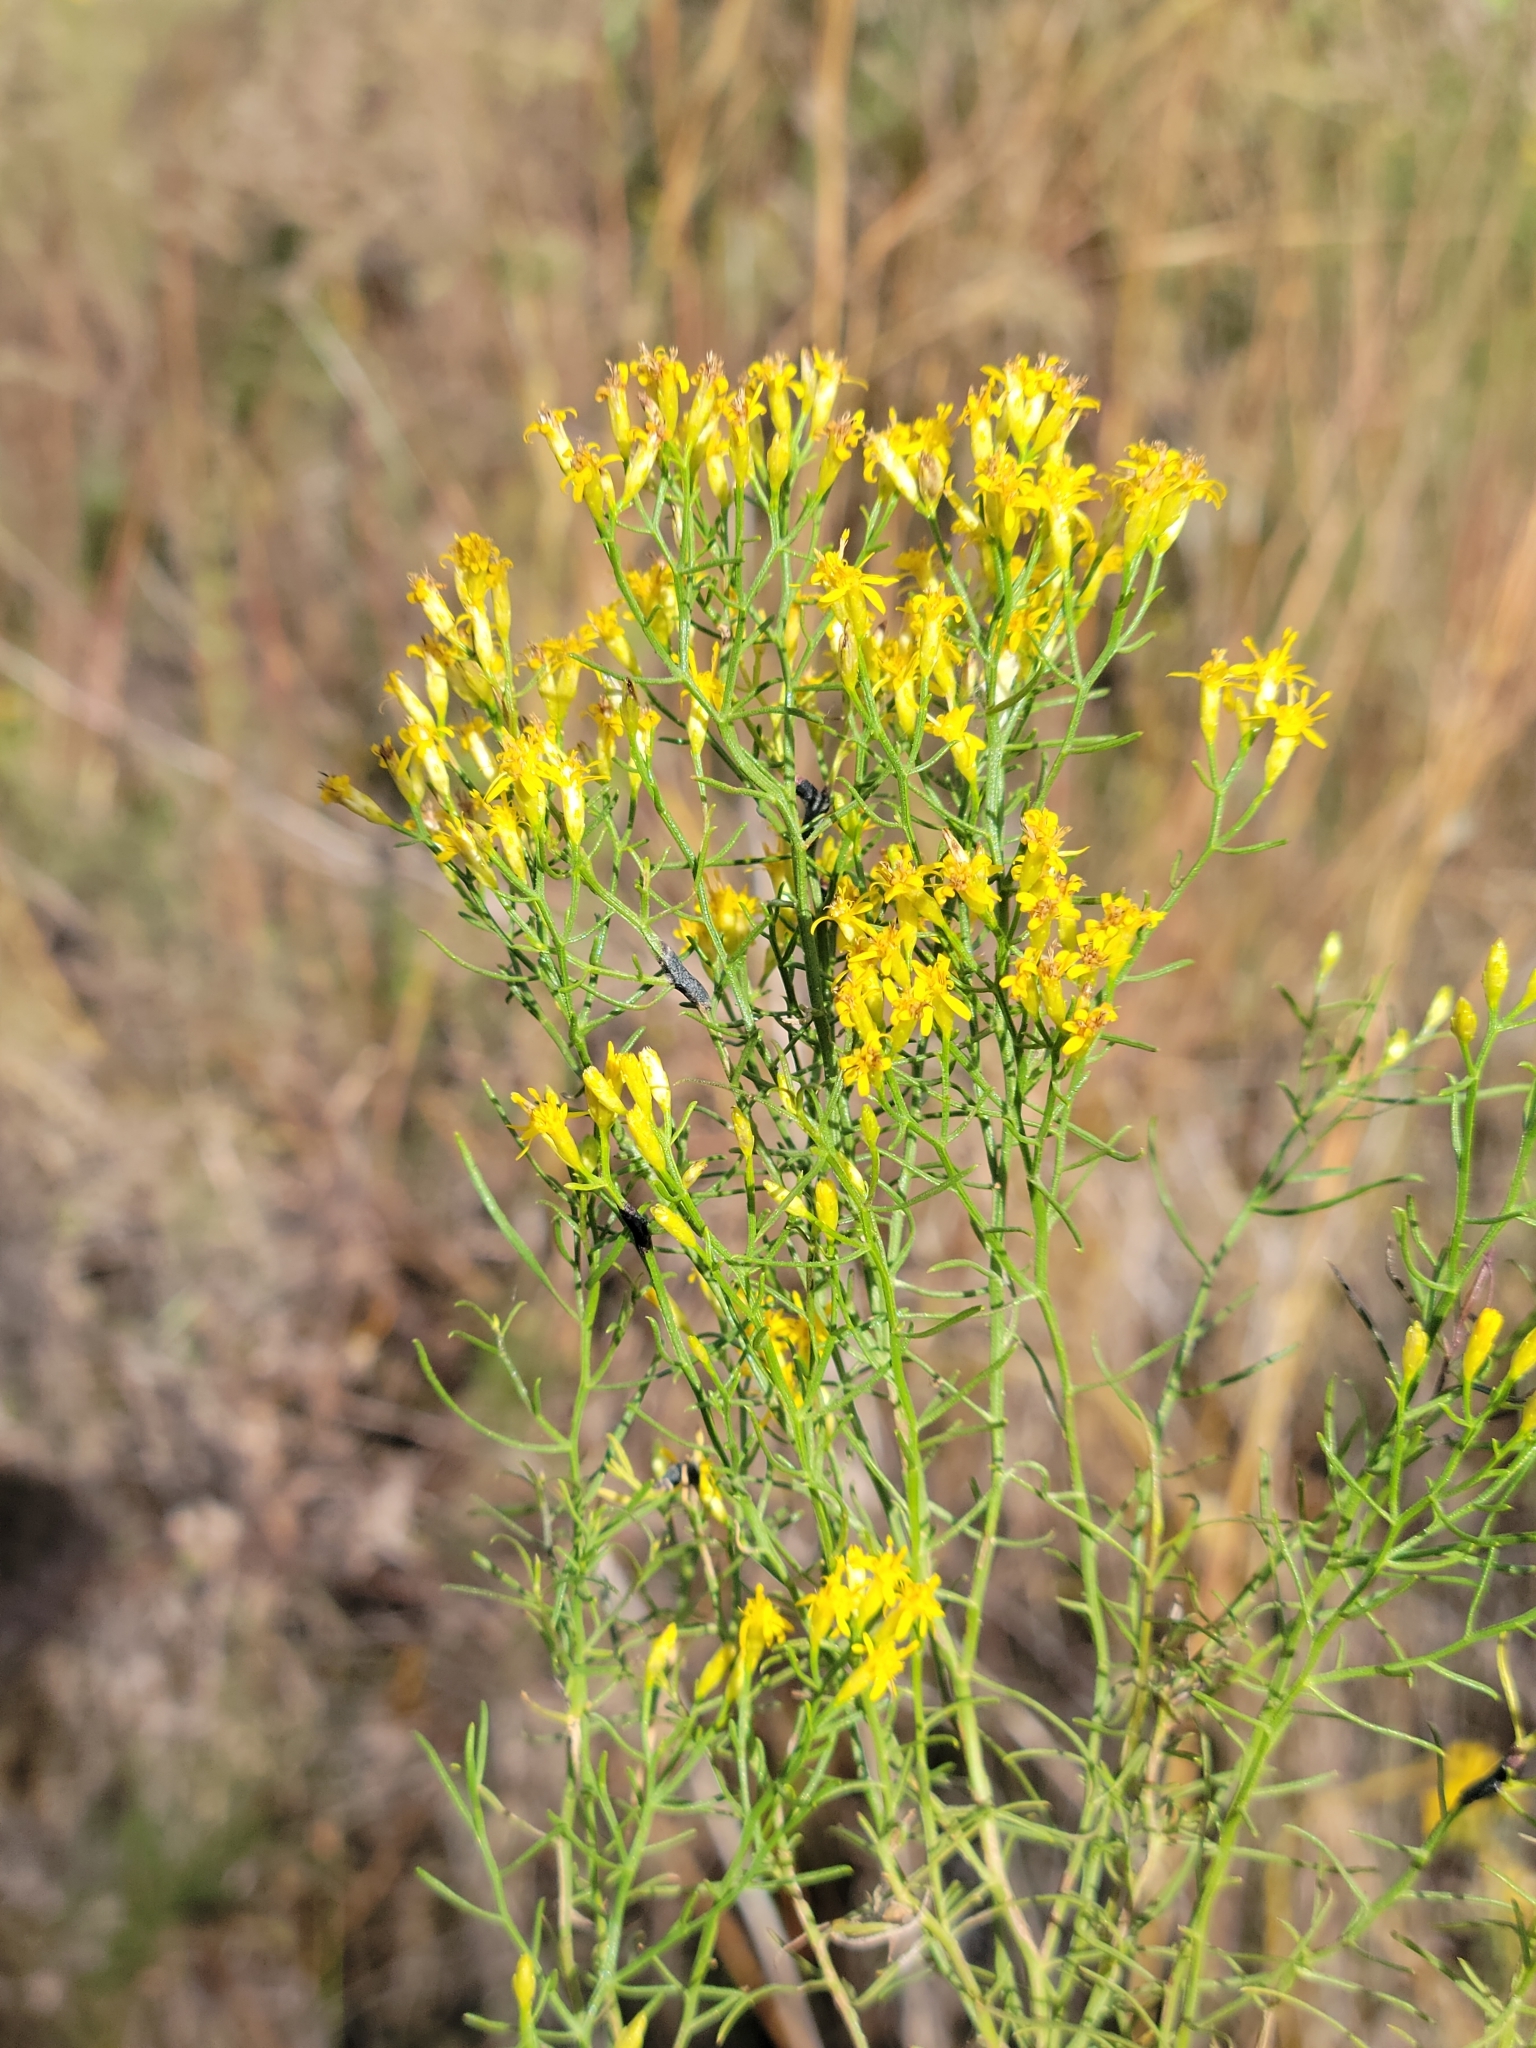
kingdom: Plantae
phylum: Tracheophyta
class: Magnoliopsida
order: Asterales
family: Asteraceae
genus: Euthamia
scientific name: Euthamia caroliniana
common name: Coastal plain goldentop
